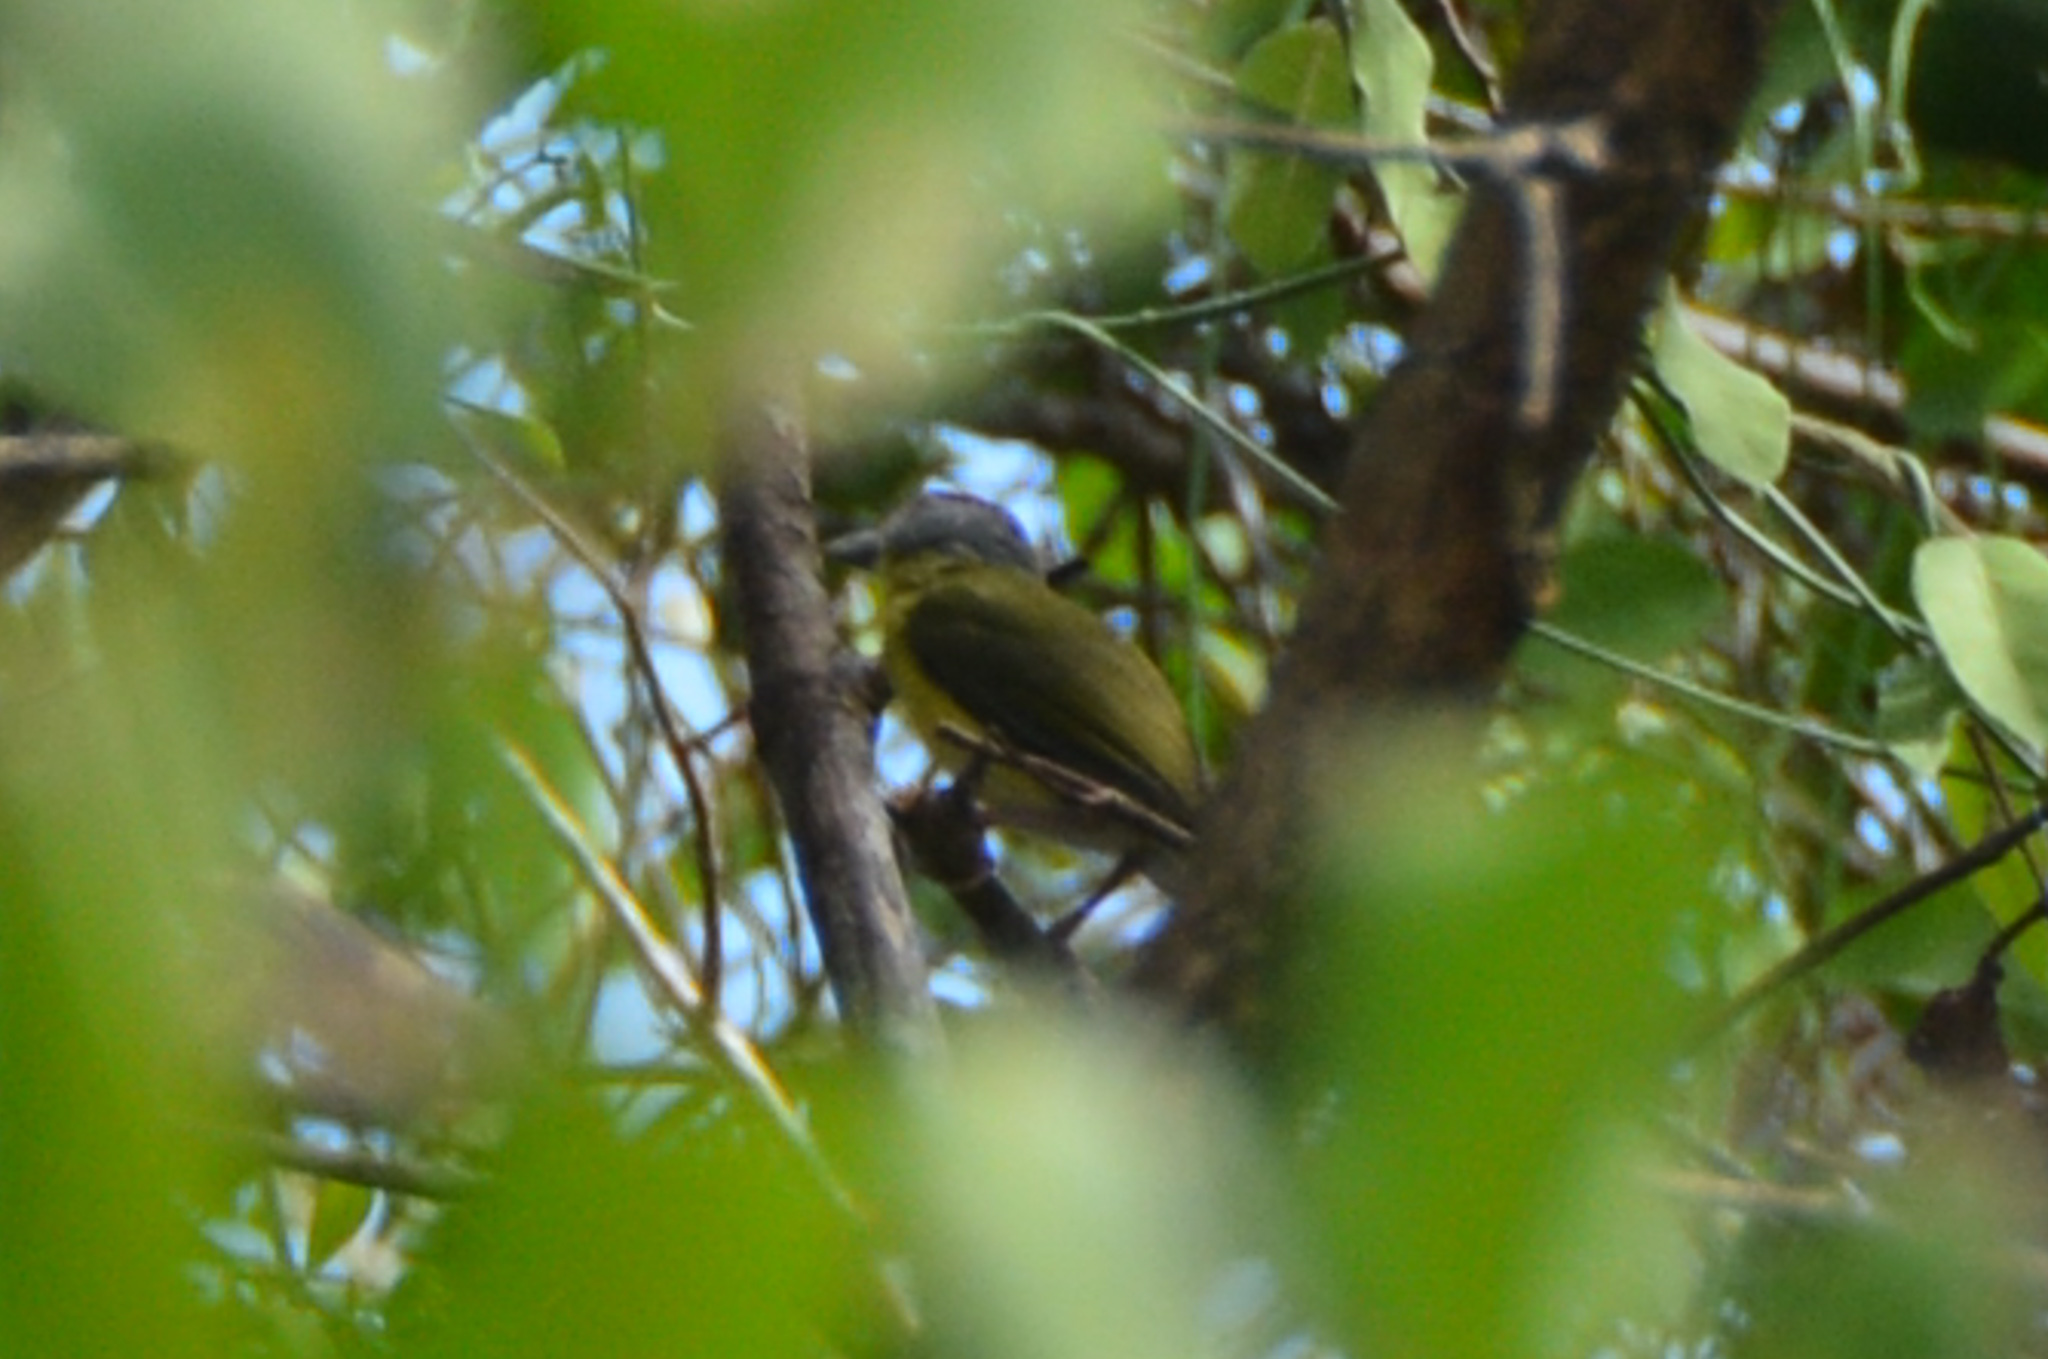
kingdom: Animalia
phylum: Chordata
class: Aves
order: Passeriformes
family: Vireonidae
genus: Cyclarhis
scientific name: Cyclarhis gujanensis
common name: Rufous-browed peppershrike
